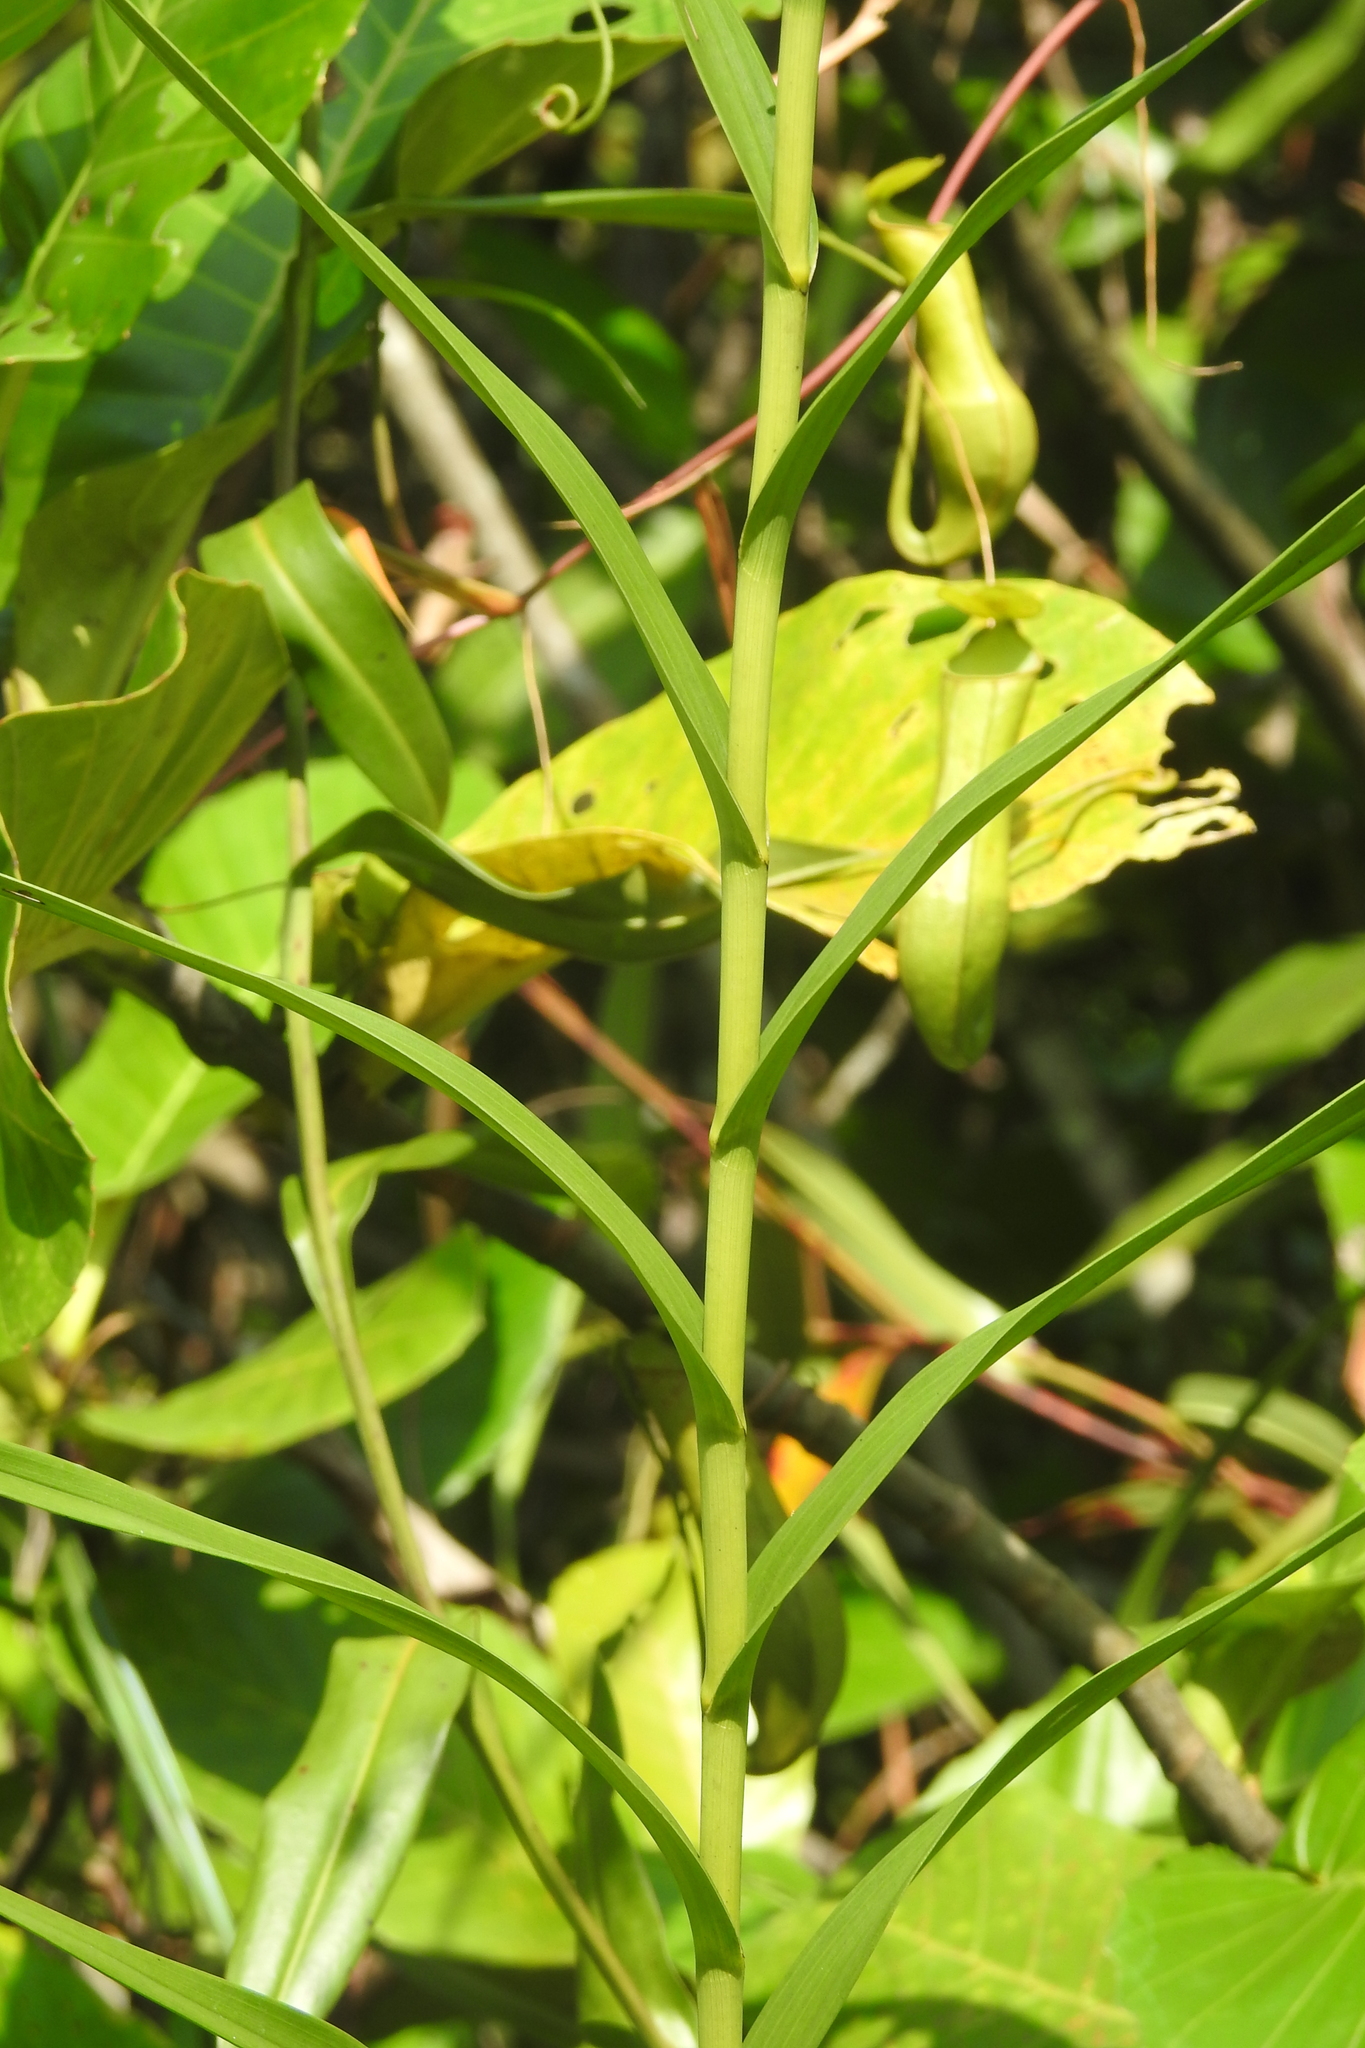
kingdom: Plantae
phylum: Tracheophyta
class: Magnoliopsida
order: Caryophyllales
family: Nepenthaceae
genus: Nepenthes
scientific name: Nepenthes gracilis
